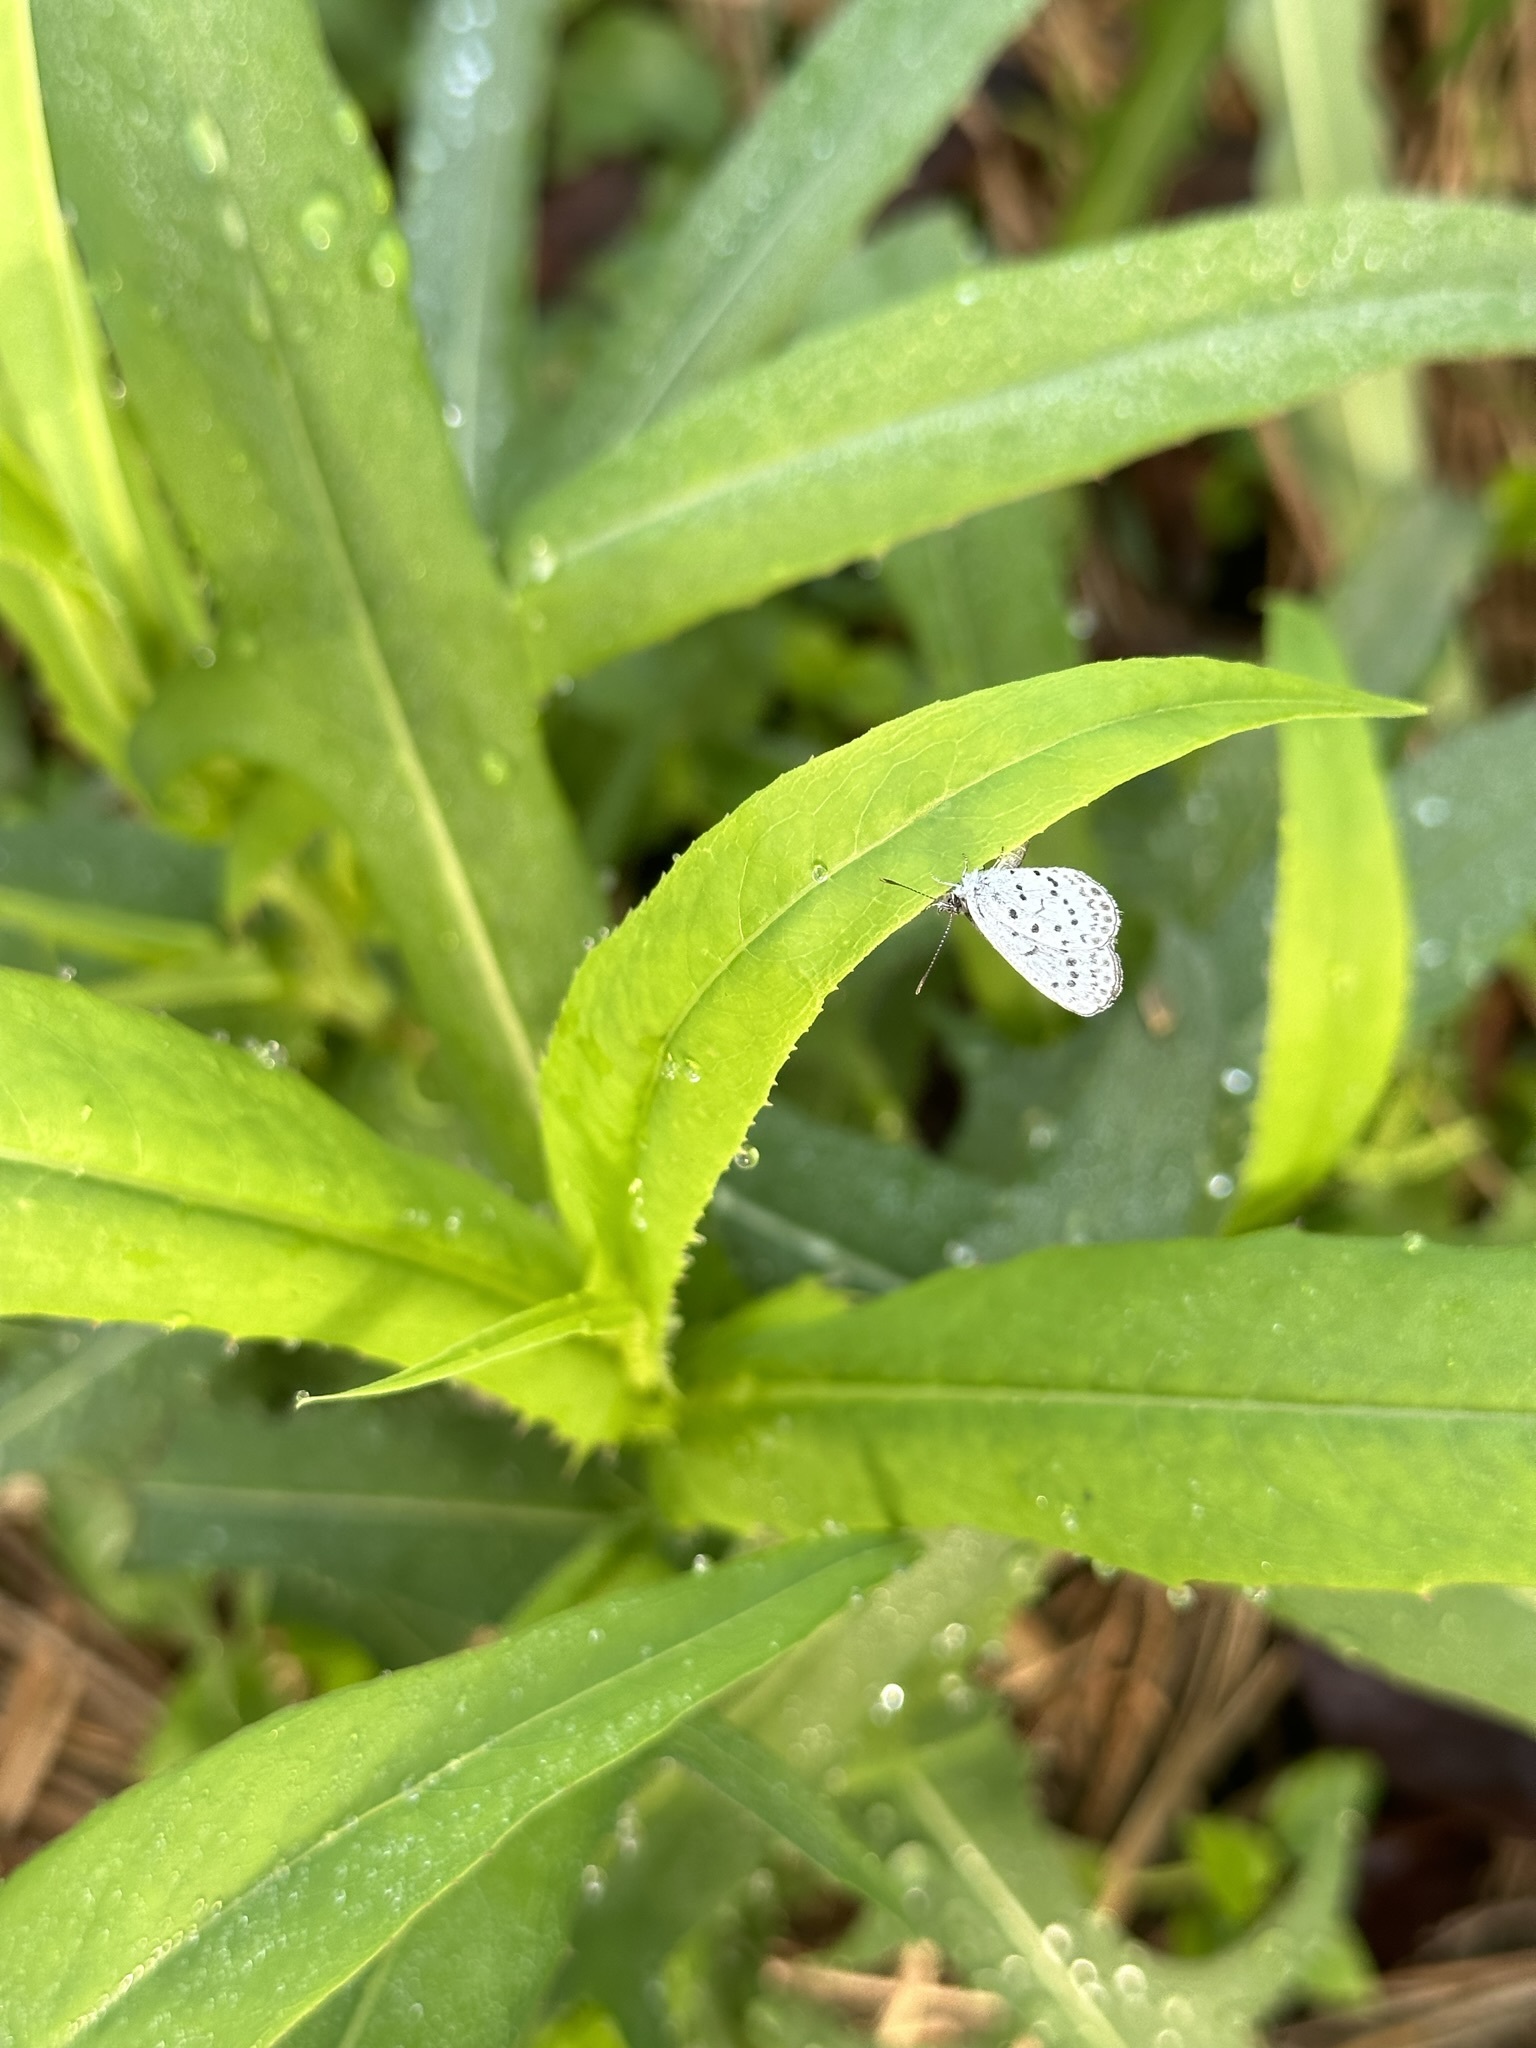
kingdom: Animalia
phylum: Arthropoda
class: Insecta
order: Lepidoptera
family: Lycaenidae
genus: Pseudozizeeria
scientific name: Pseudozizeeria maha
